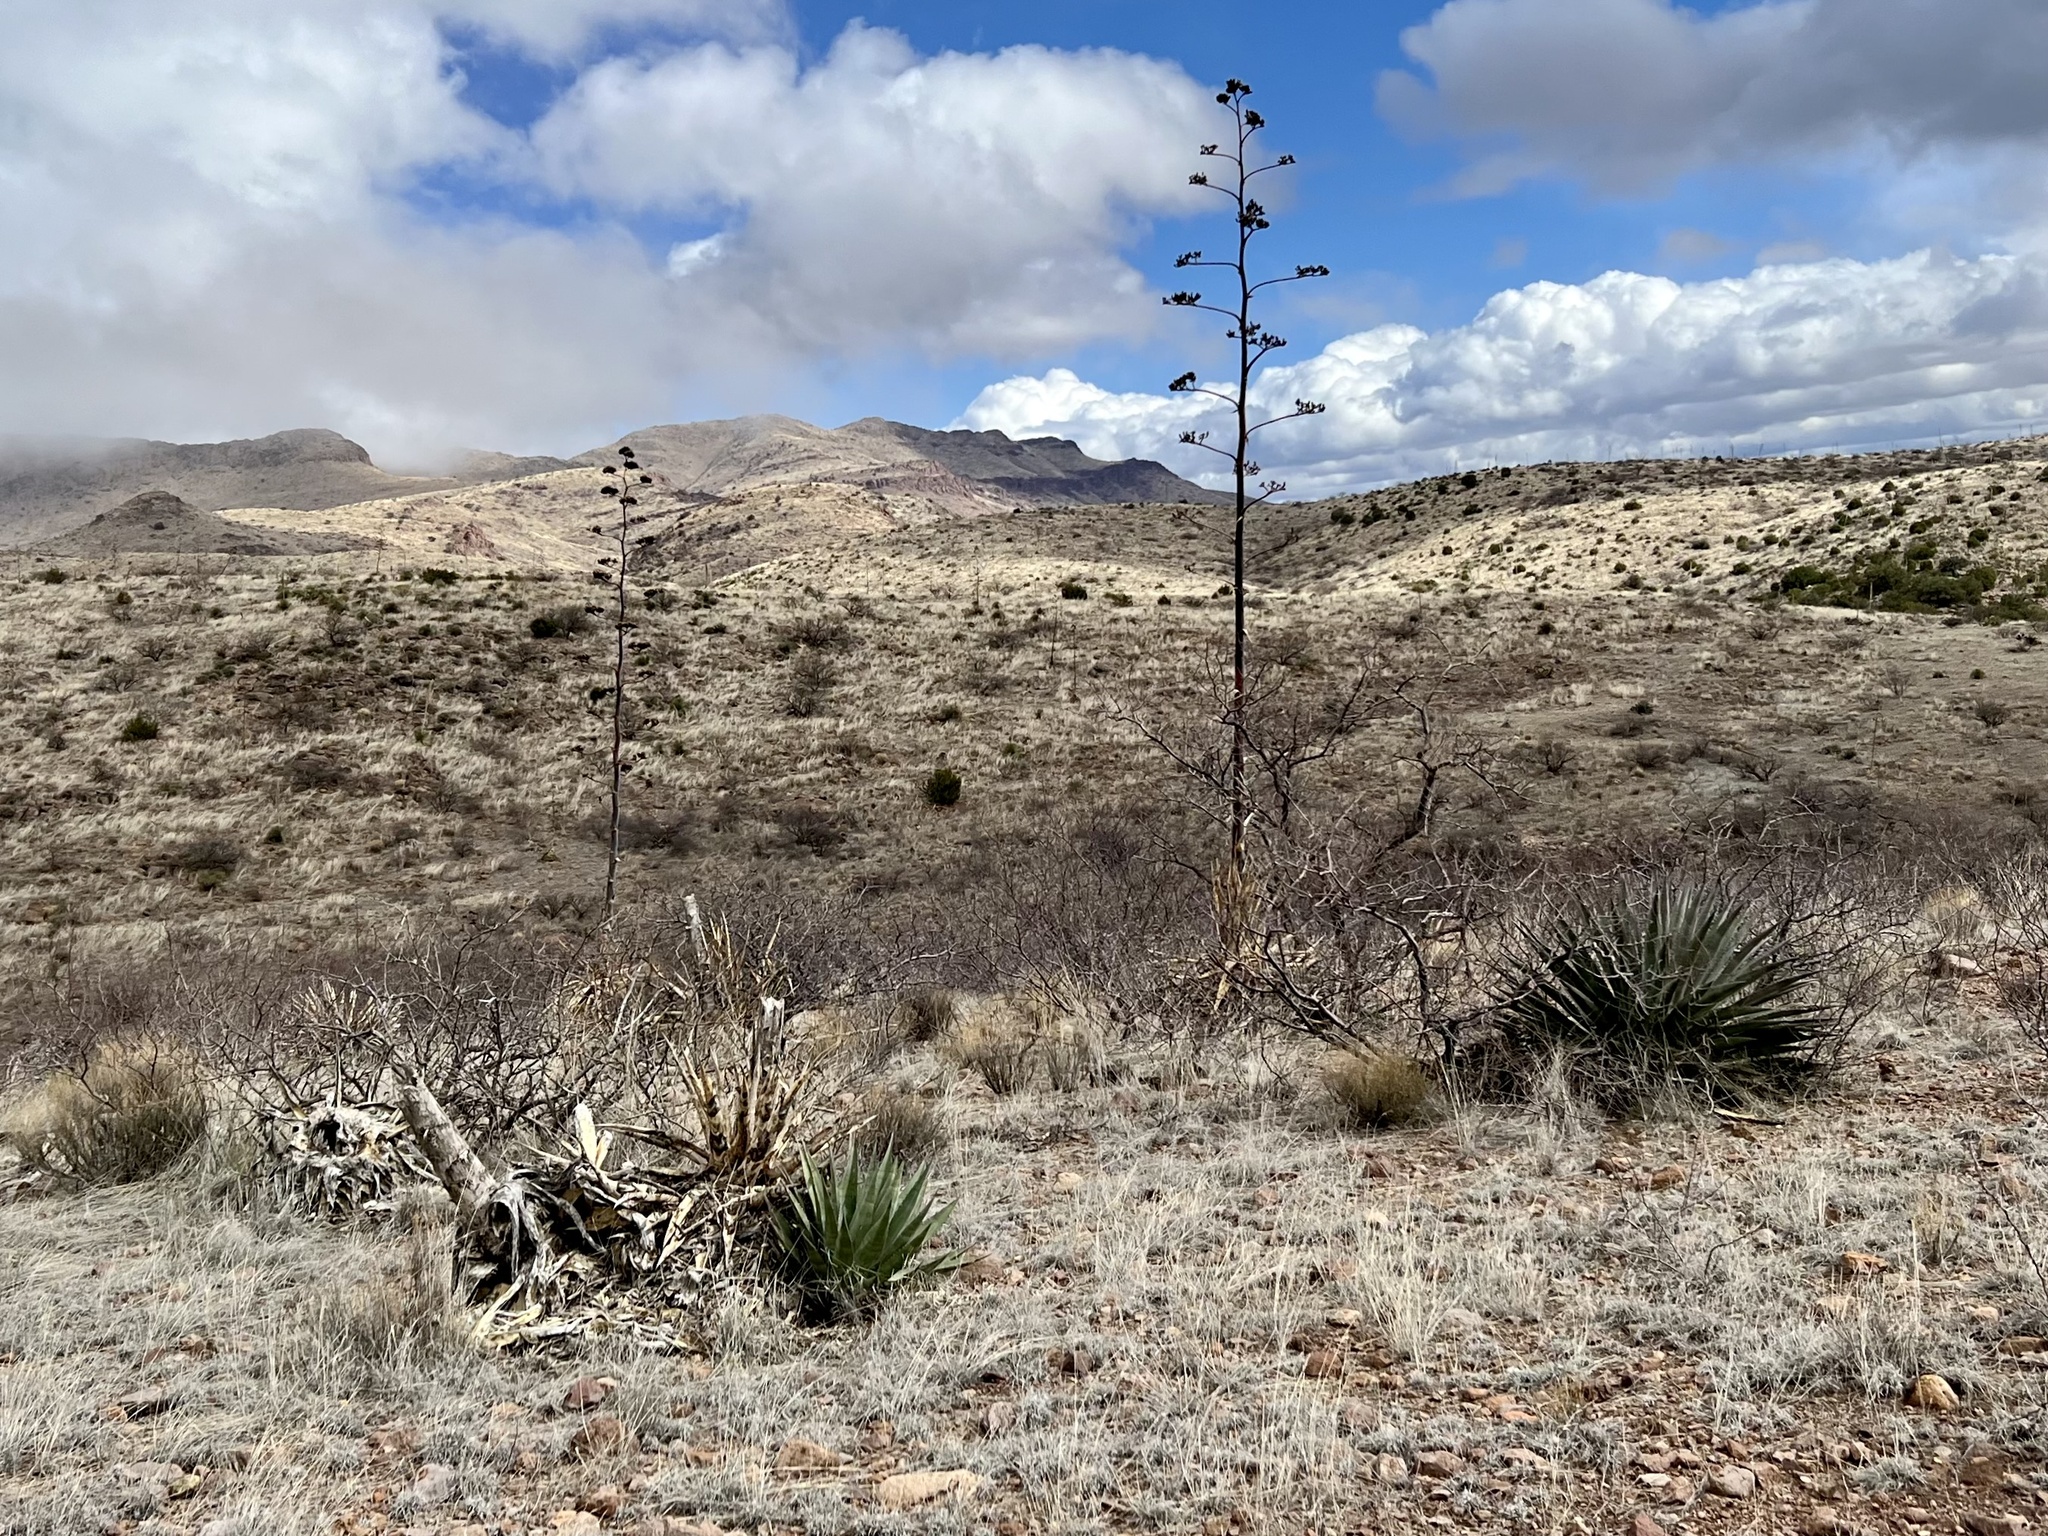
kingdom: Plantae
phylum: Tracheophyta
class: Liliopsida
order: Asparagales
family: Asparagaceae
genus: Agave
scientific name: Agave palmeri
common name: Palmer agave
